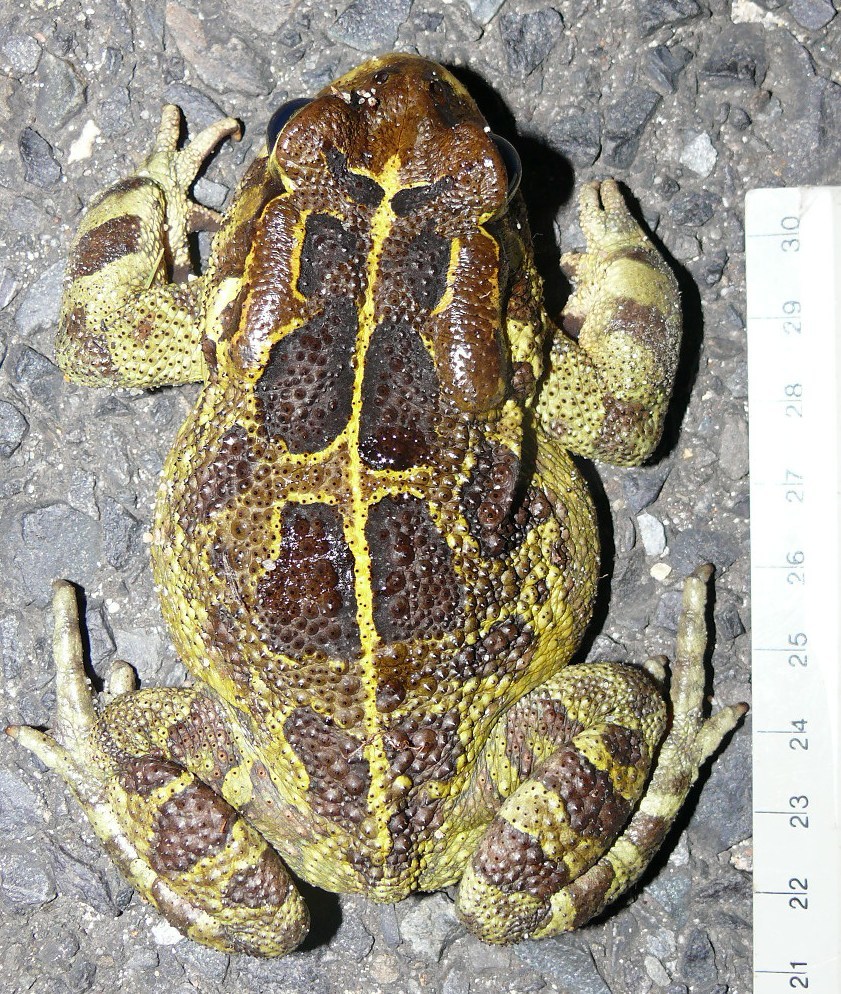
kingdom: Animalia
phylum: Chordata
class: Amphibia
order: Anura
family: Bufonidae
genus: Sclerophrys
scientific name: Sclerophrys pantherina
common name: Panther toad
